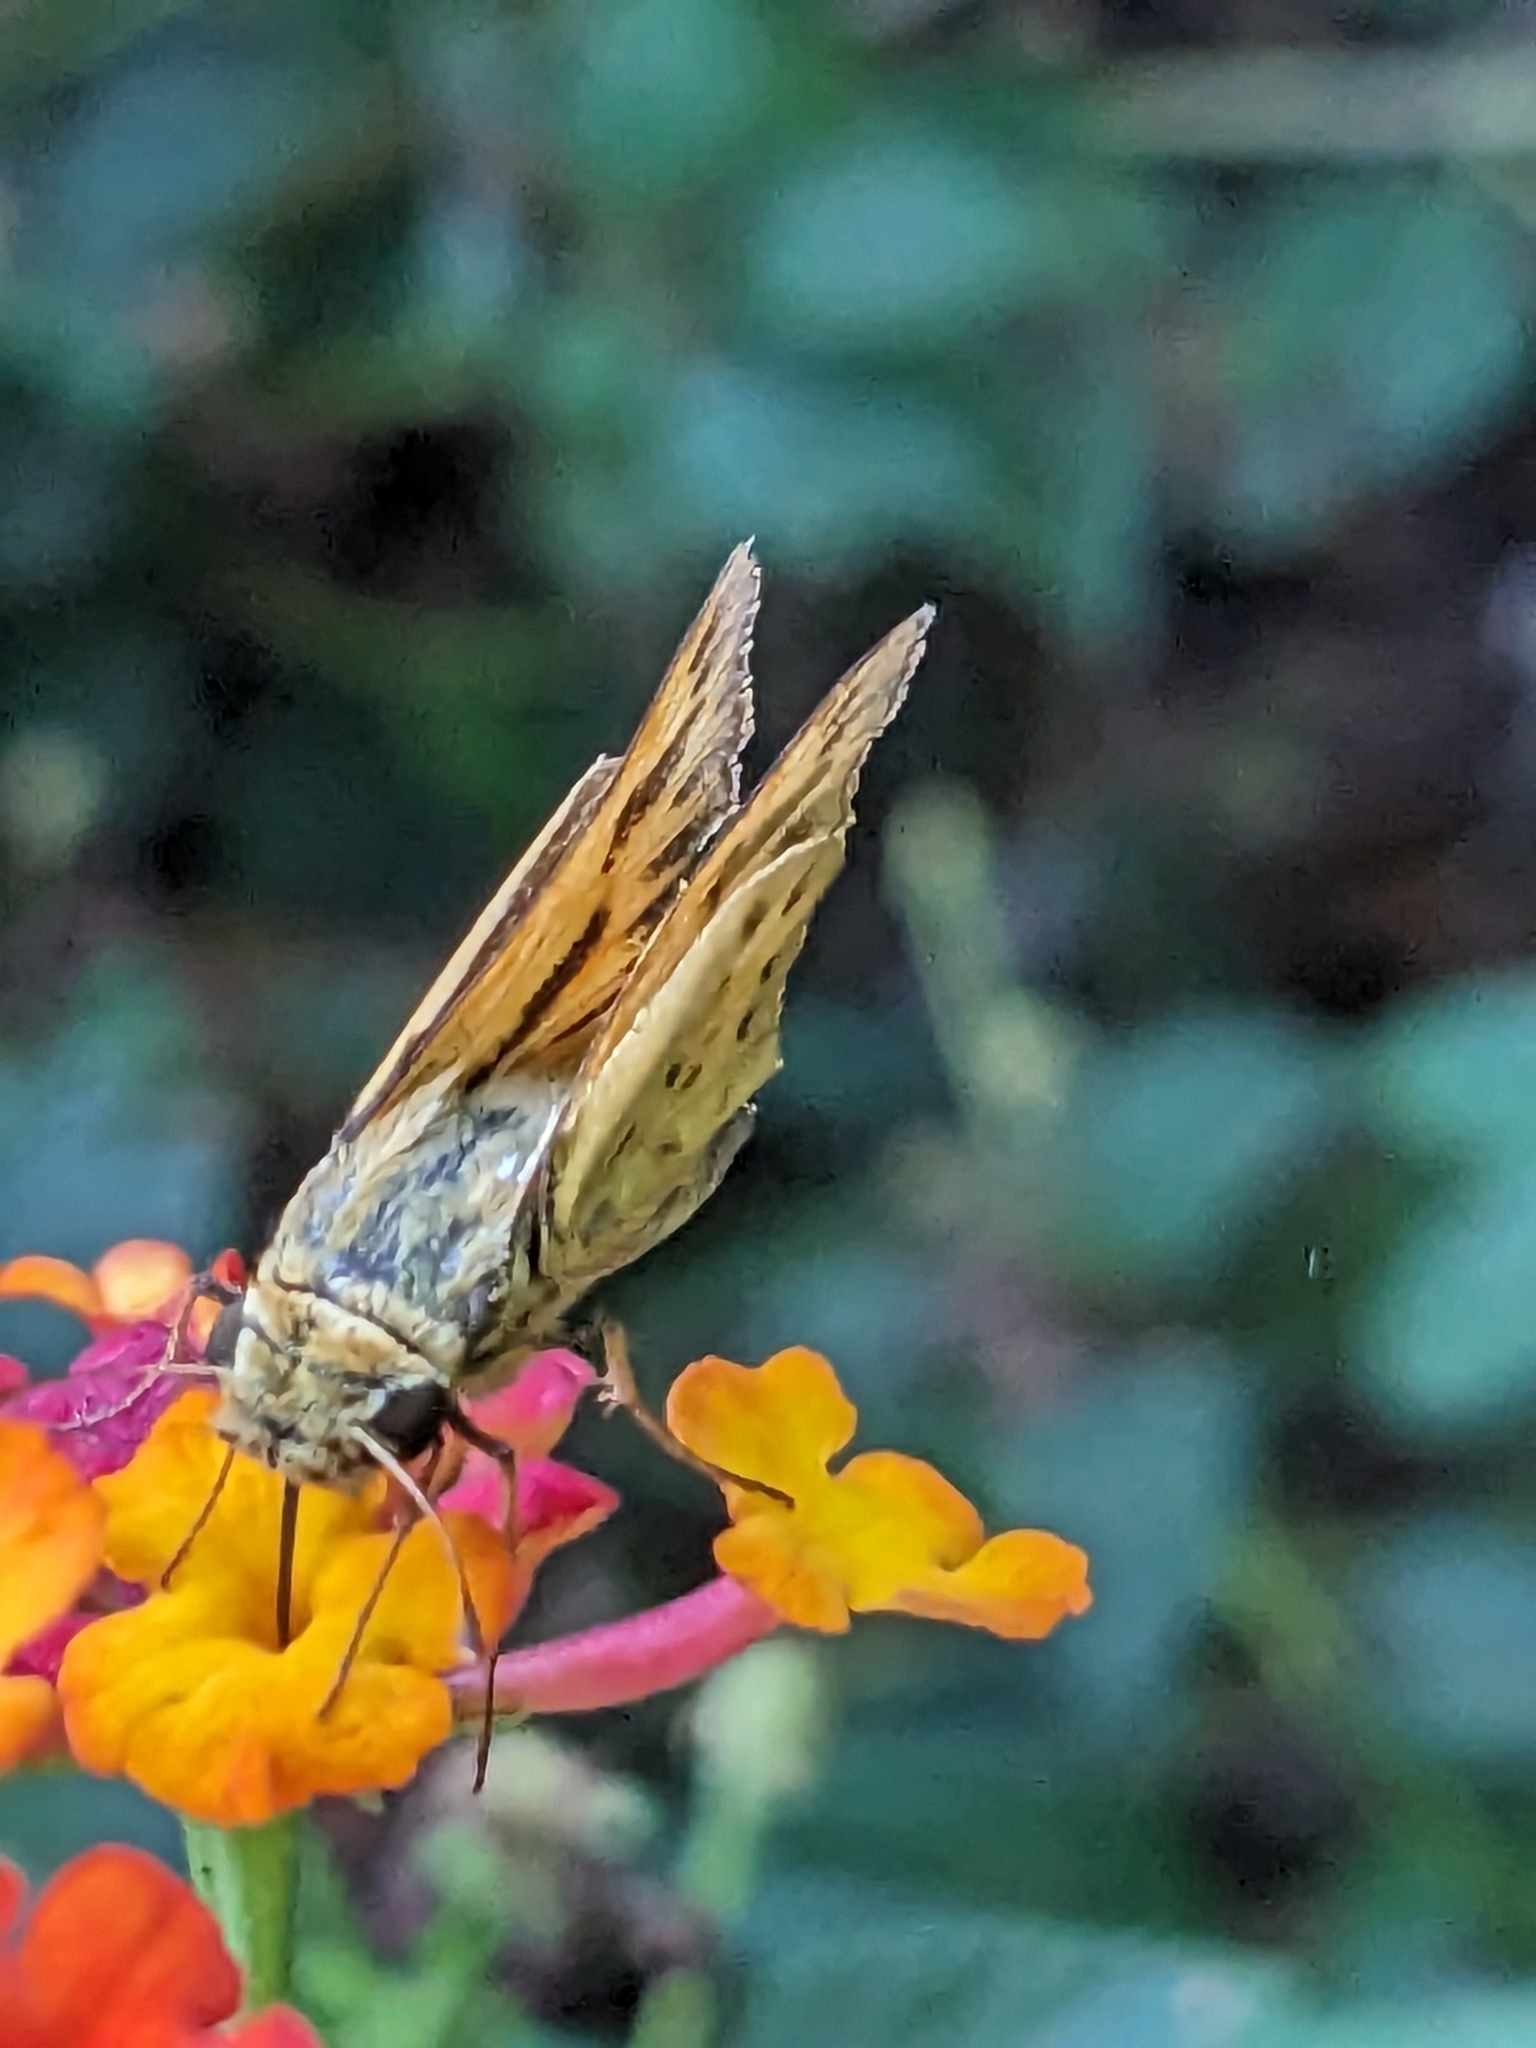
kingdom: Animalia
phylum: Arthropoda
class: Insecta
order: Lepidoptera
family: Hesperiidae
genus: Hylephila
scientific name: Hylephila phyleus
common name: Fiery skipper
